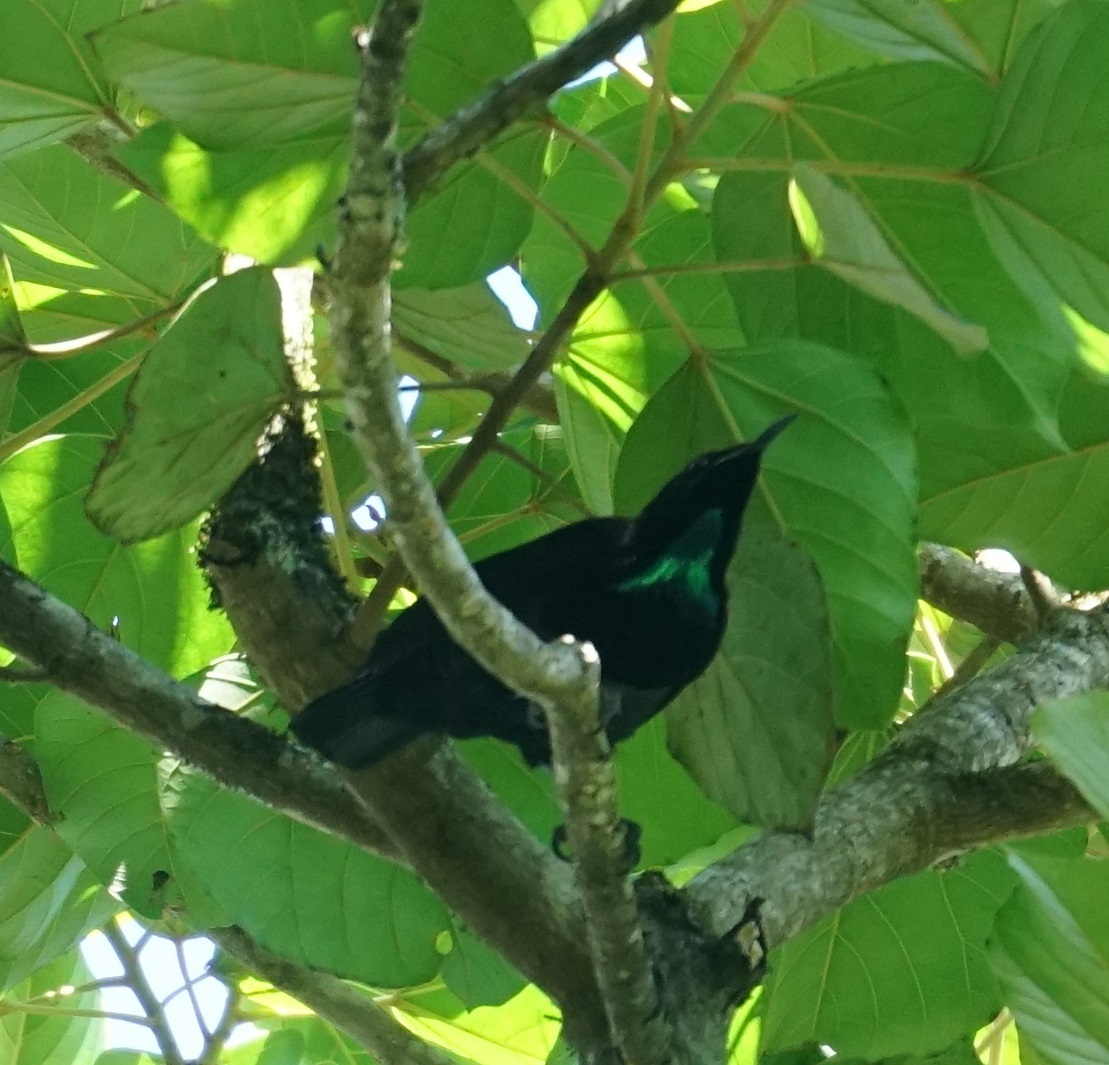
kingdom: Animalia
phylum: Chordata
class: Aves
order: Passeriformes
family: Paradisaeidae
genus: Ptiloris
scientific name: Ptiloris victoriae
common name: Victoria's riflebird
